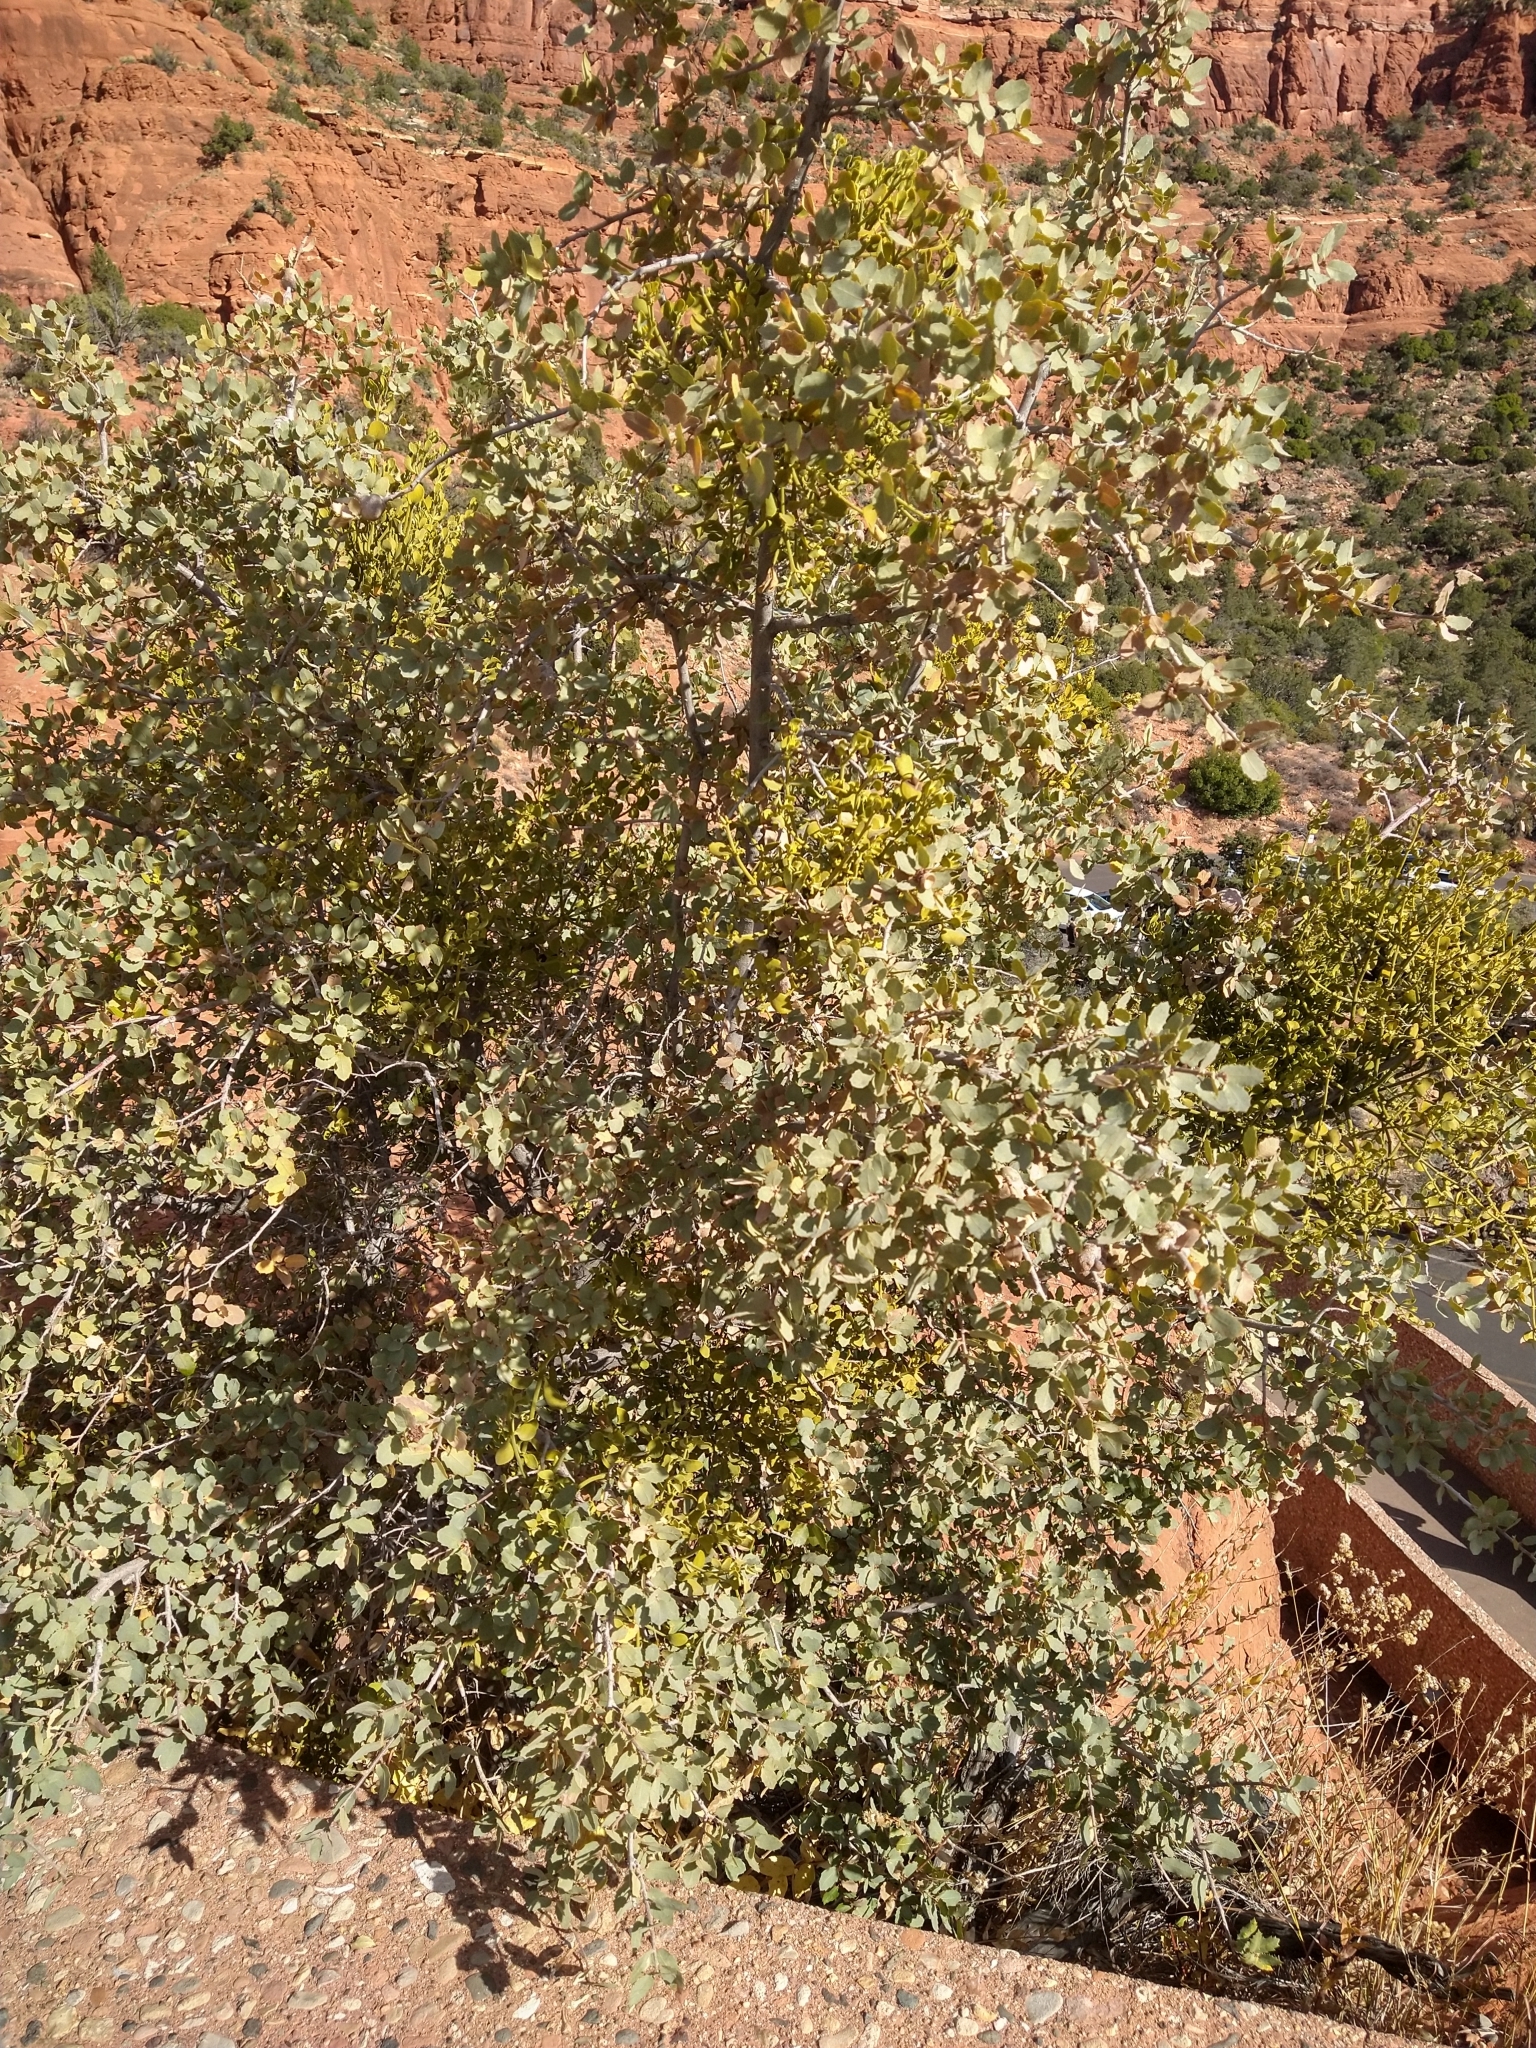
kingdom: Animalia
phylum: Arthropoda
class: Insecta
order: Hymenoptera
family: Cynipidae
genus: Andricus
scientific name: Andricus
